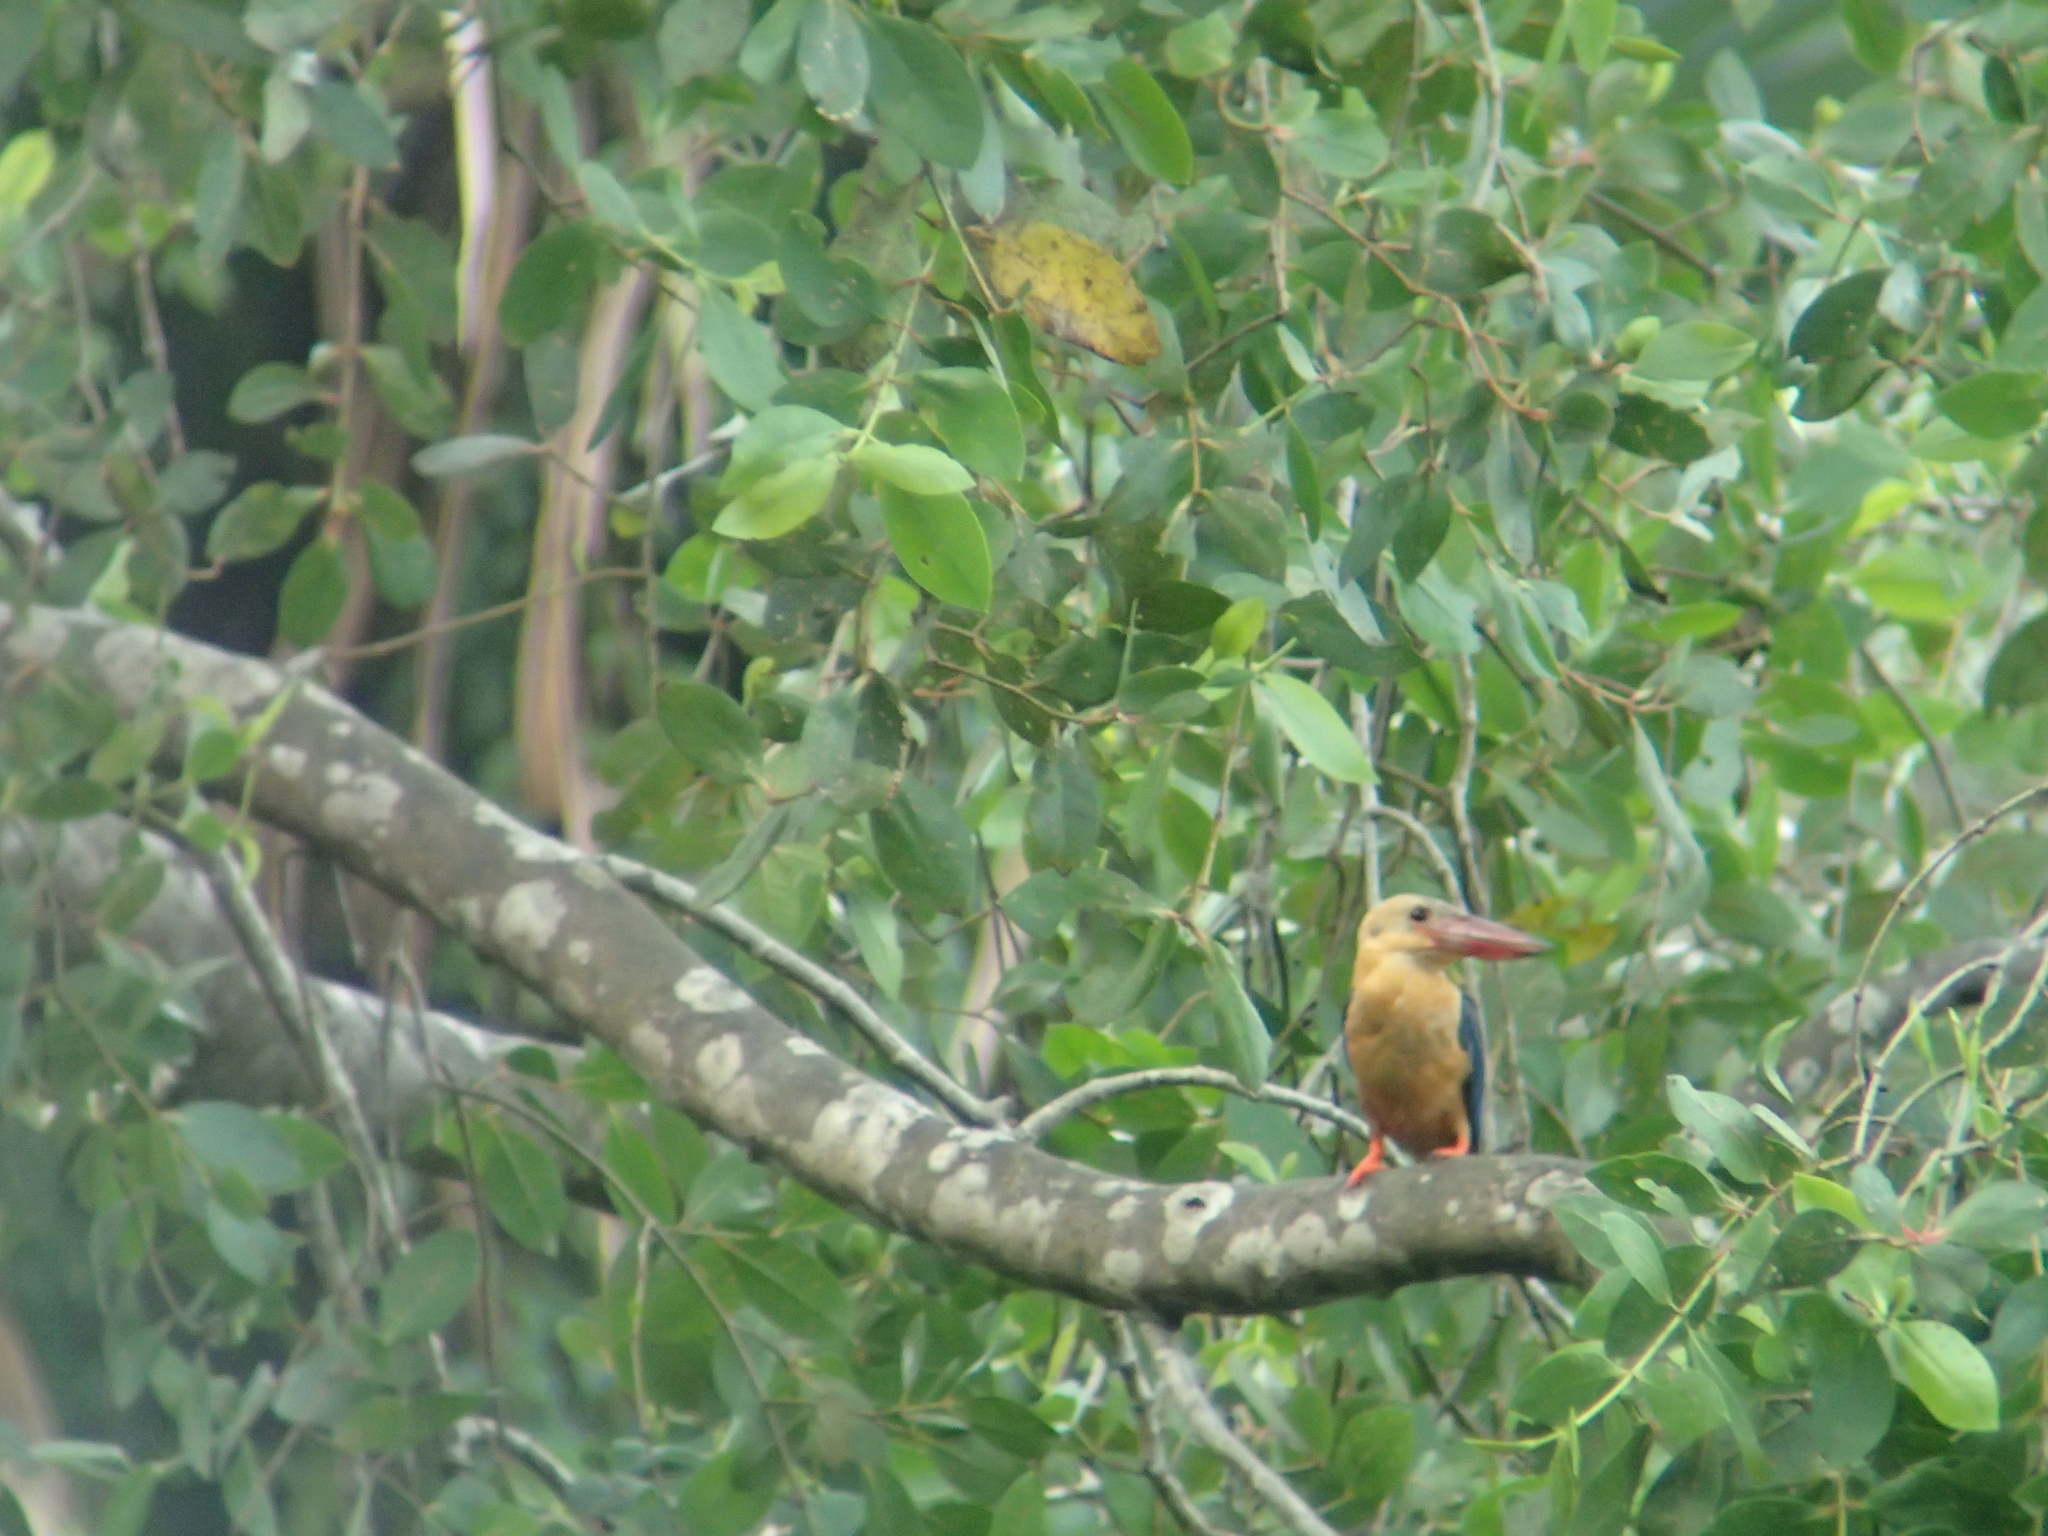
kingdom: Animalia
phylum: Chordata
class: Aves
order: Coraciiformes
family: Alcedinidae
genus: Pelargopsis
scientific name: Pelargopsis capensis
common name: Stork-billed kingfisher
